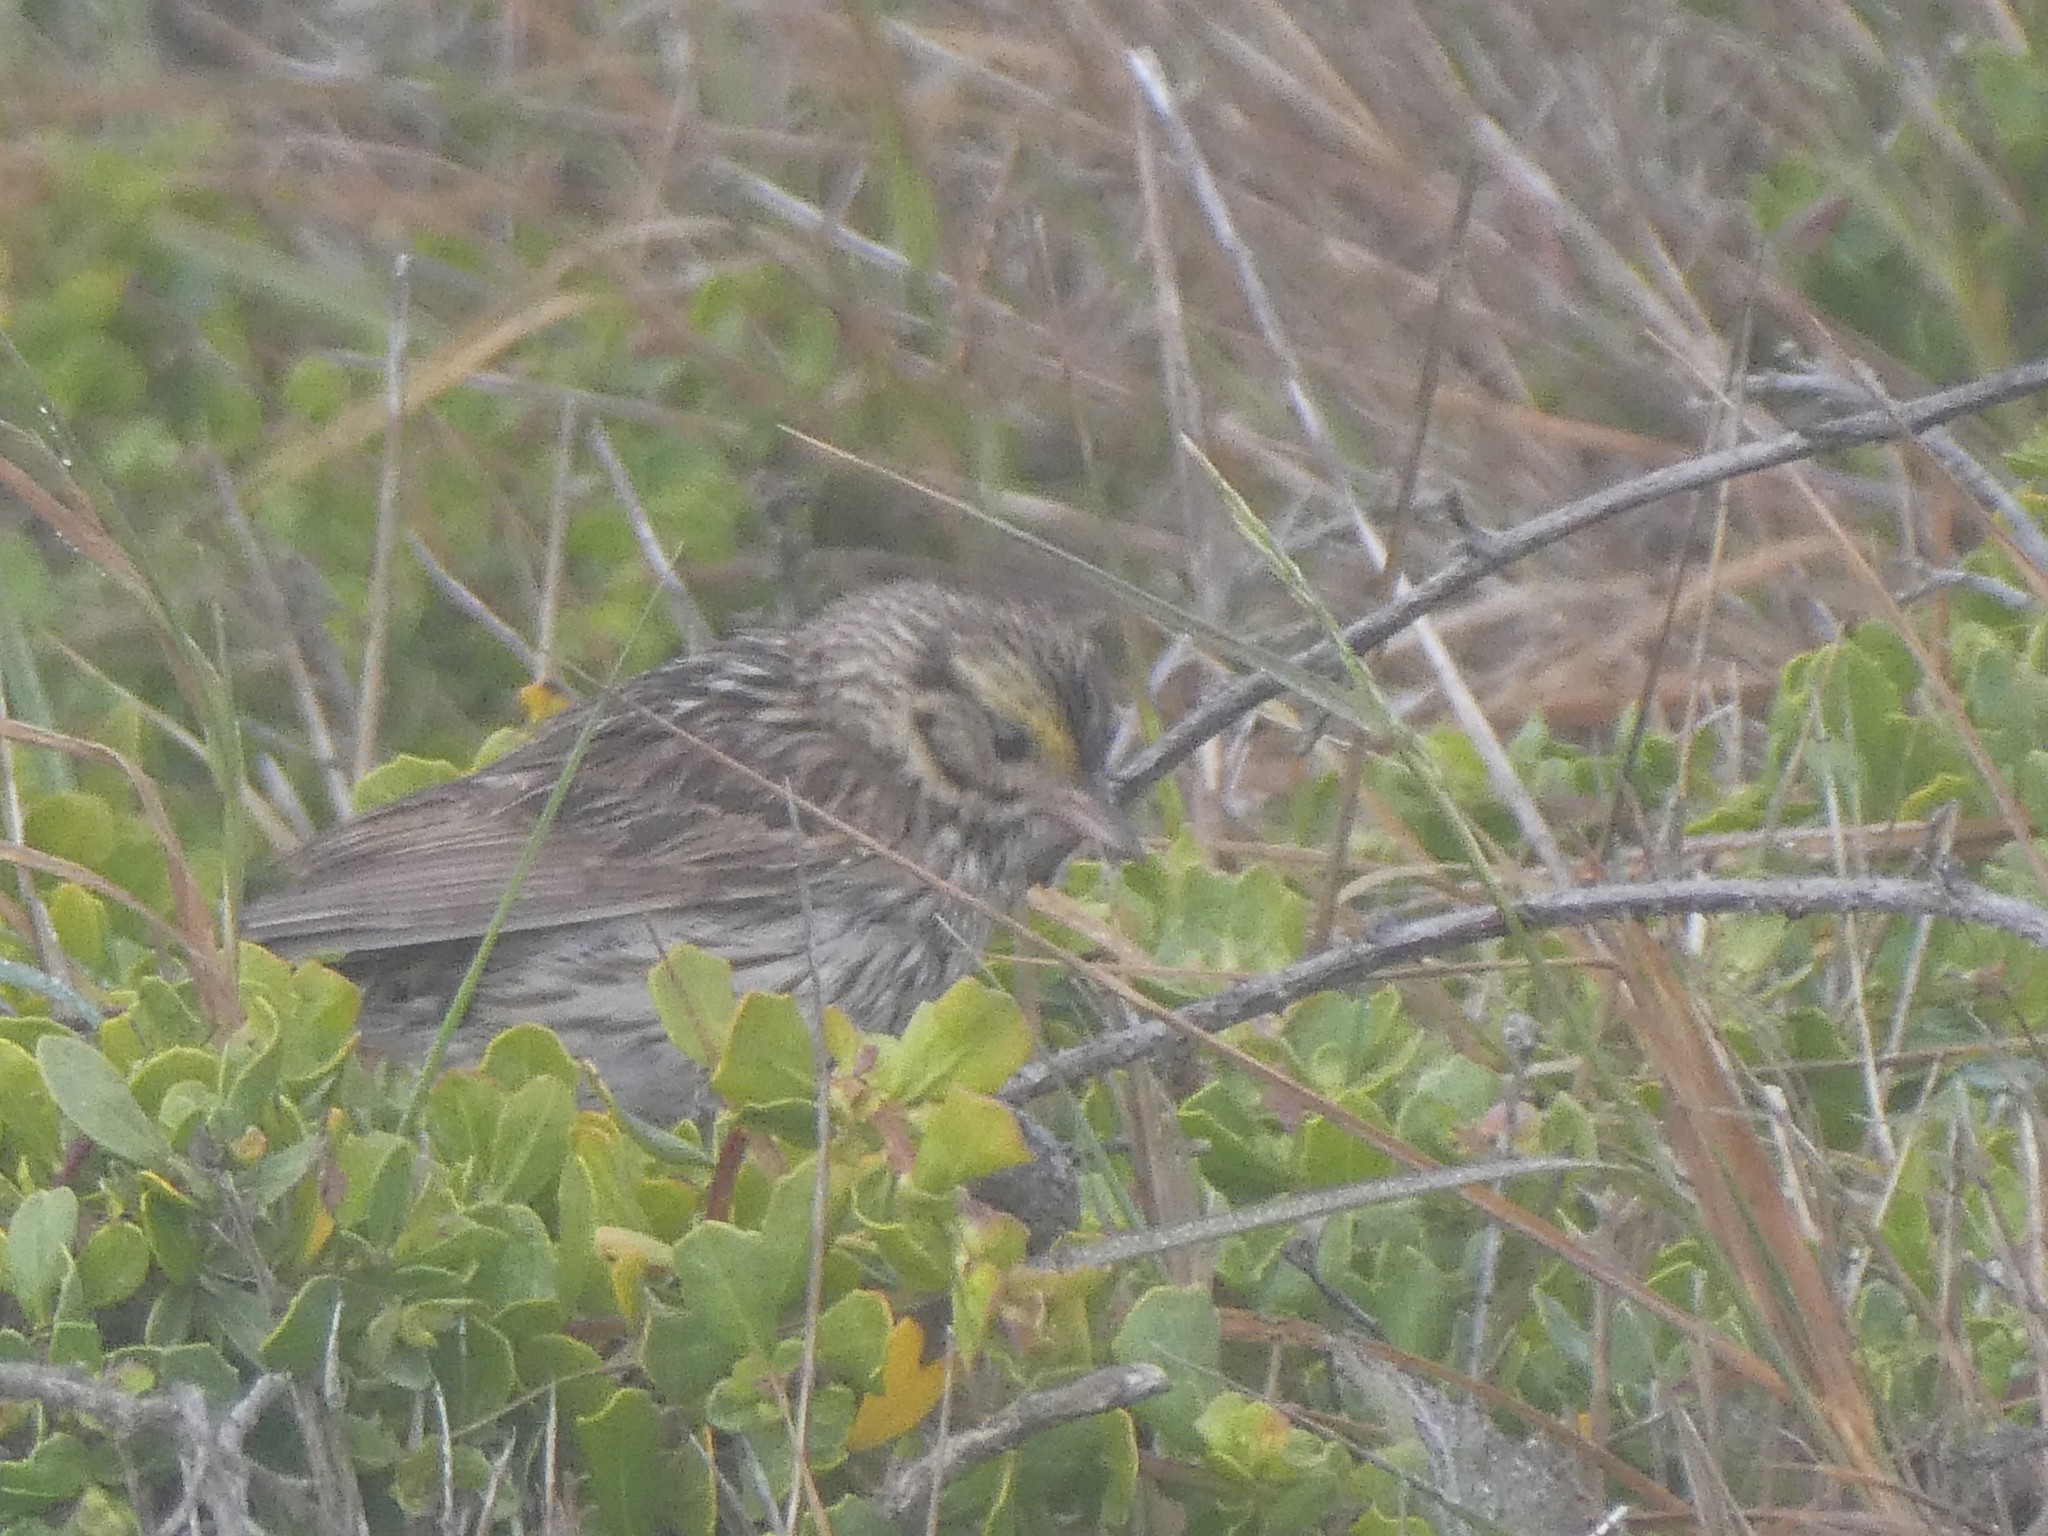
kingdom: Animalia
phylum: Chordata
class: Aves
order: Passeriformes
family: Passerellidae
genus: Passerculus
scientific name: Passerculus sandwichensis
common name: Savannah sparrow
